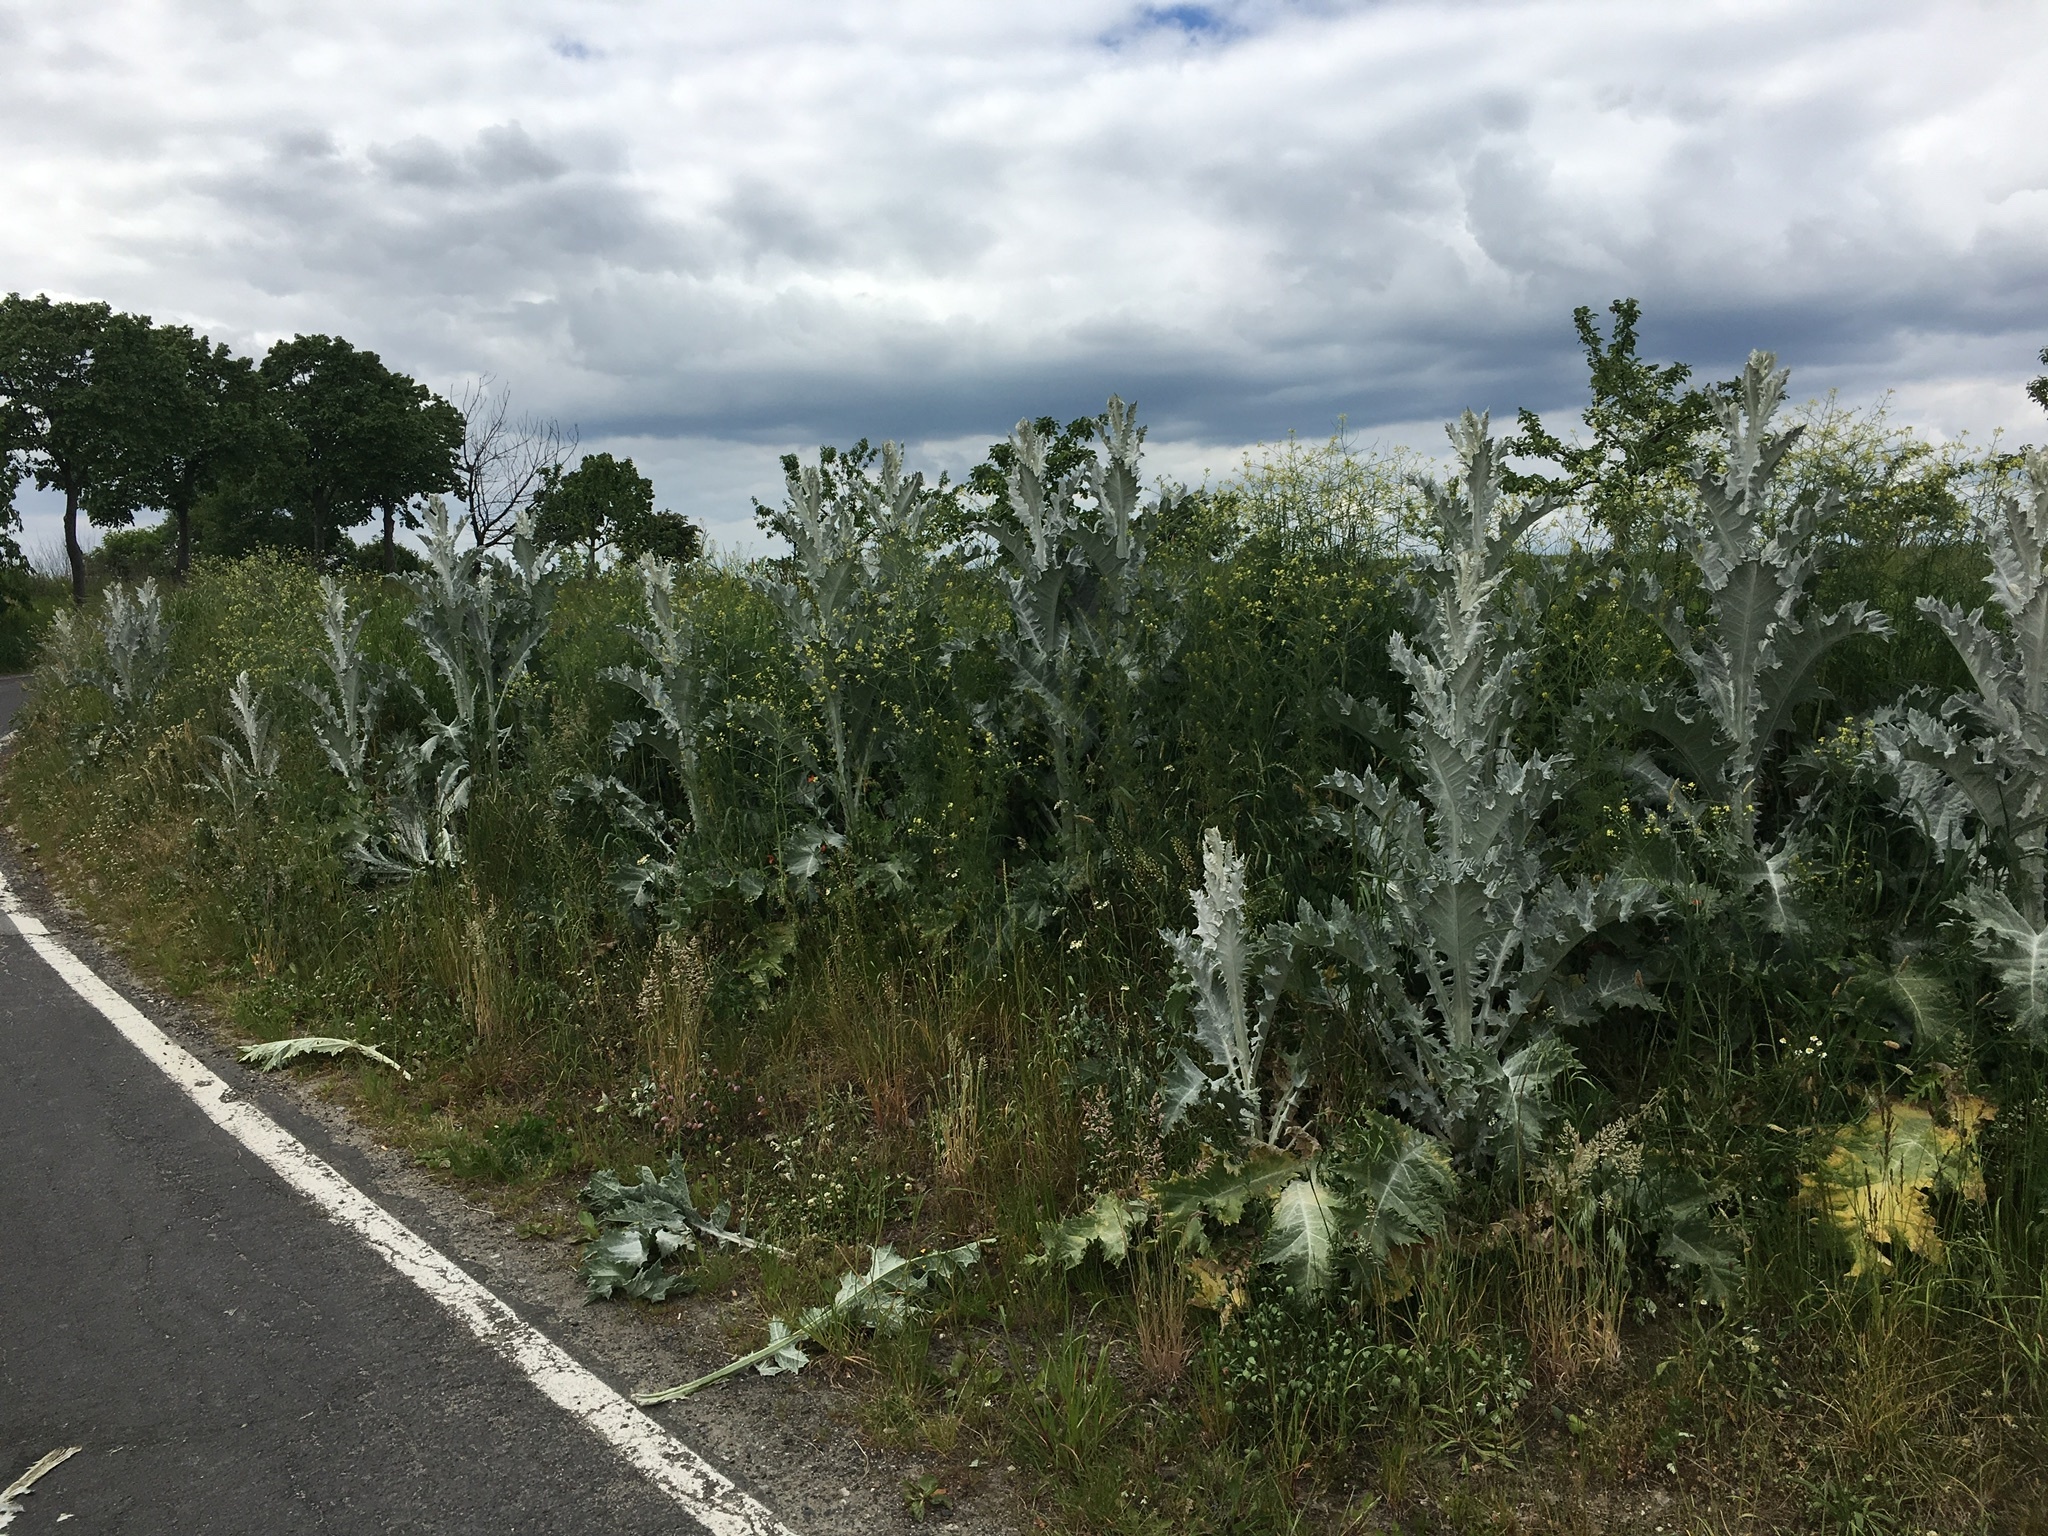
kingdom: Plantae
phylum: Tracheophyta
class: Magnoliopsida
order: Asterales
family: Asteraceae
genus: Onopordum
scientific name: Onopordum acanthium
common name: Scotch thistle
